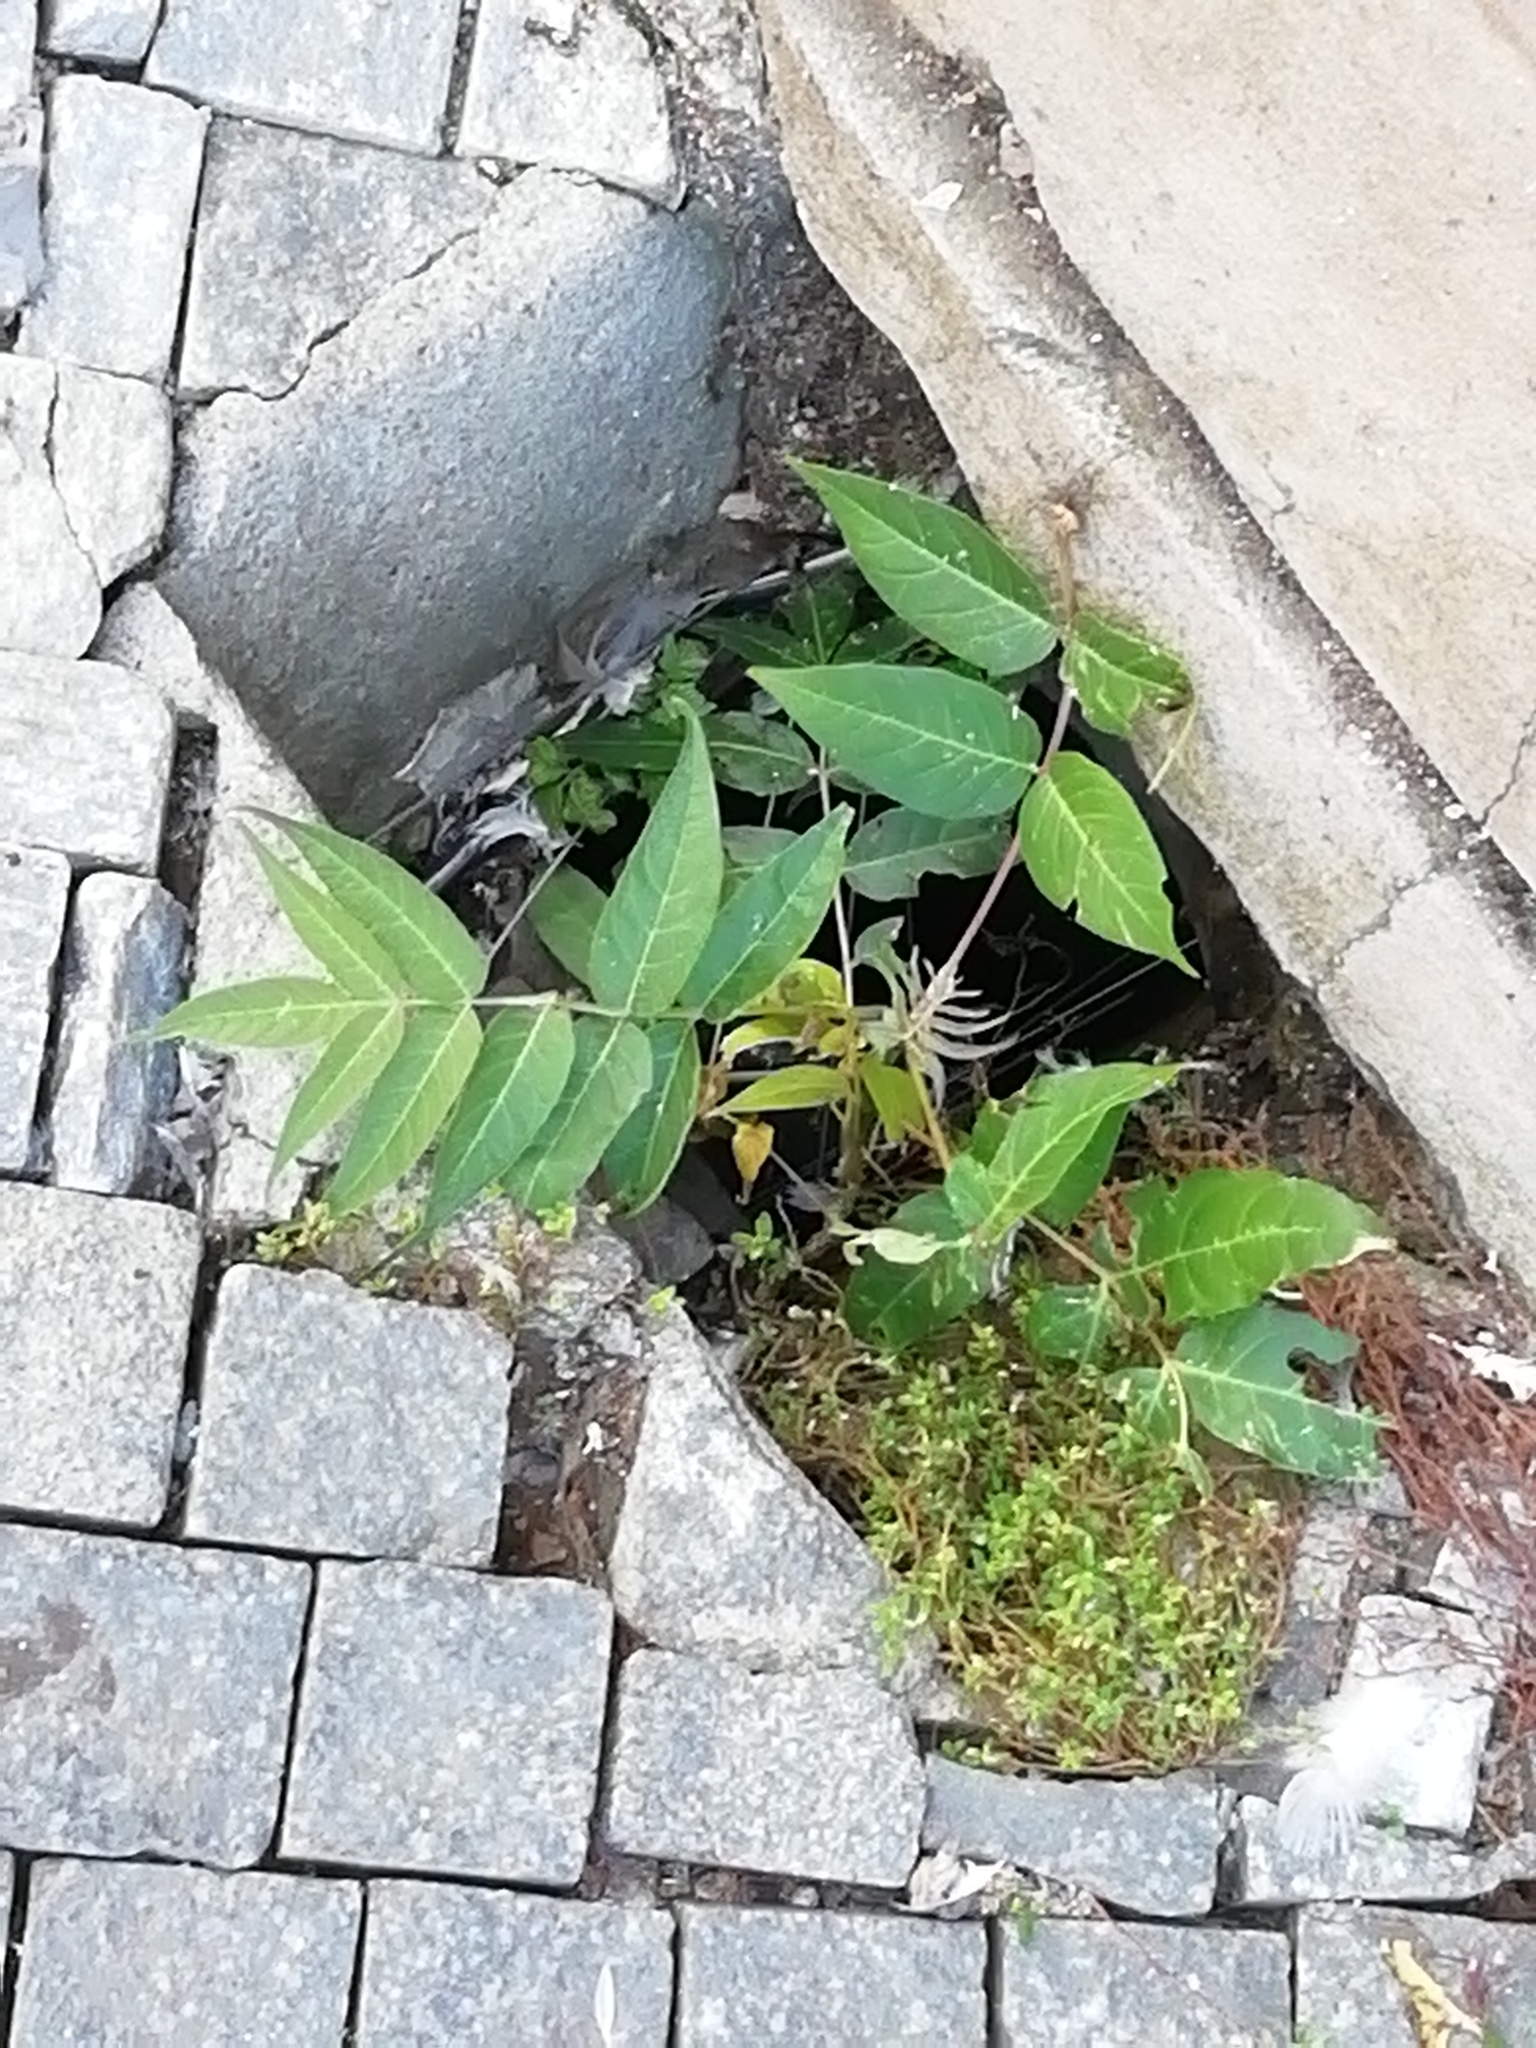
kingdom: Plantae
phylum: Tracheophyta
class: Magnoliopsida
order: Sapindales
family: Simaroubaceae
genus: Ailanthus
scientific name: Ailanthus altissima
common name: Tree-of-heaven
